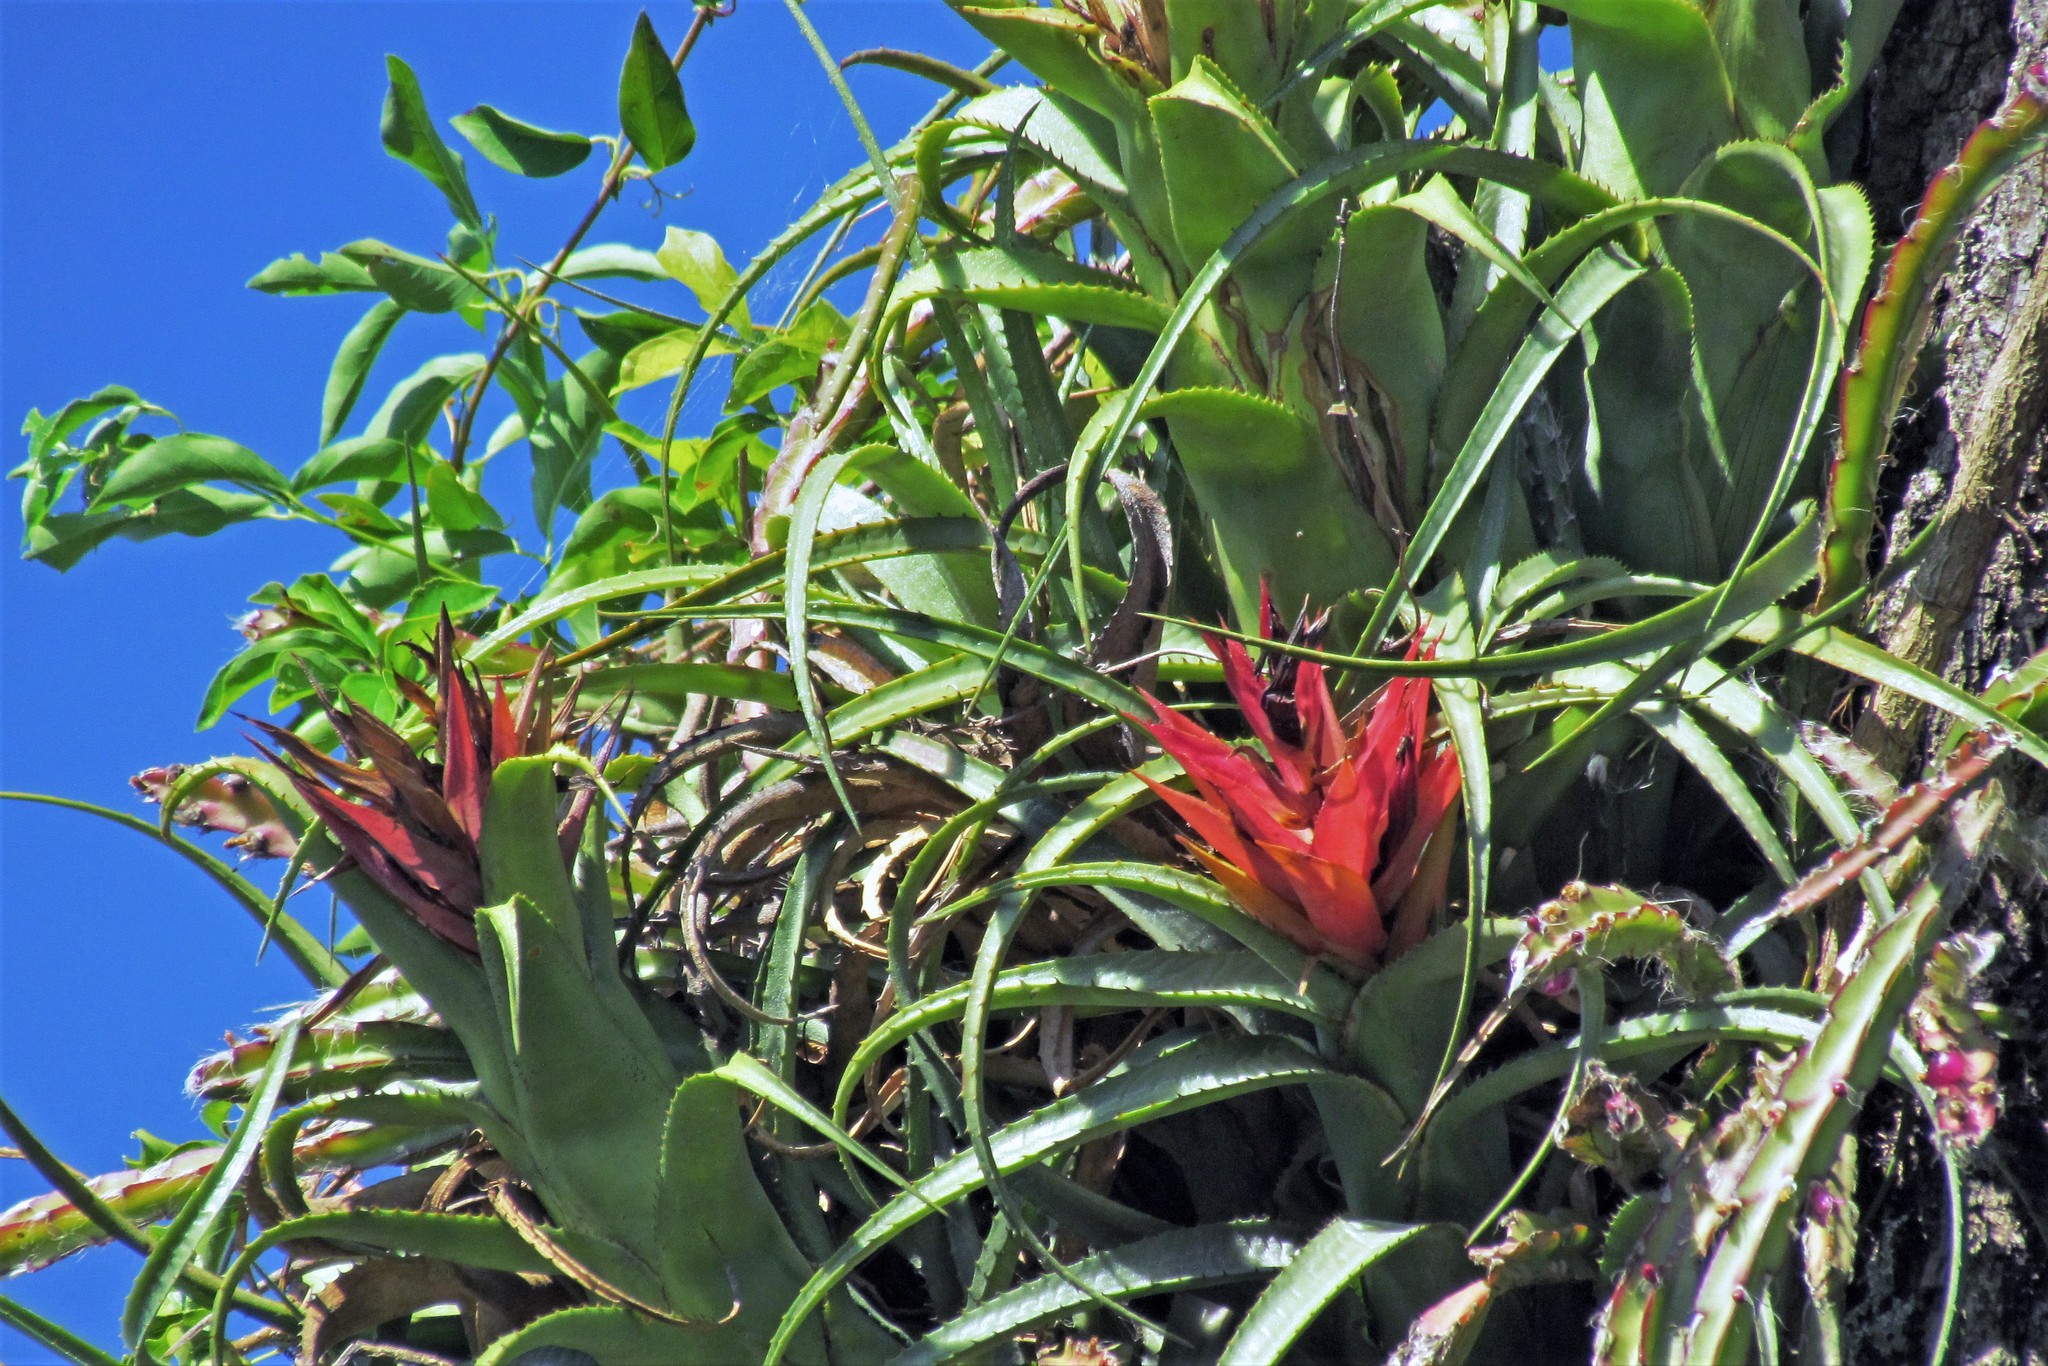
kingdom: Plantae
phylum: Tracheophyta
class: Liliopsida
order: Poales
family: Bromeliaceae
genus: Aechmea
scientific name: Aechmea recurvata
